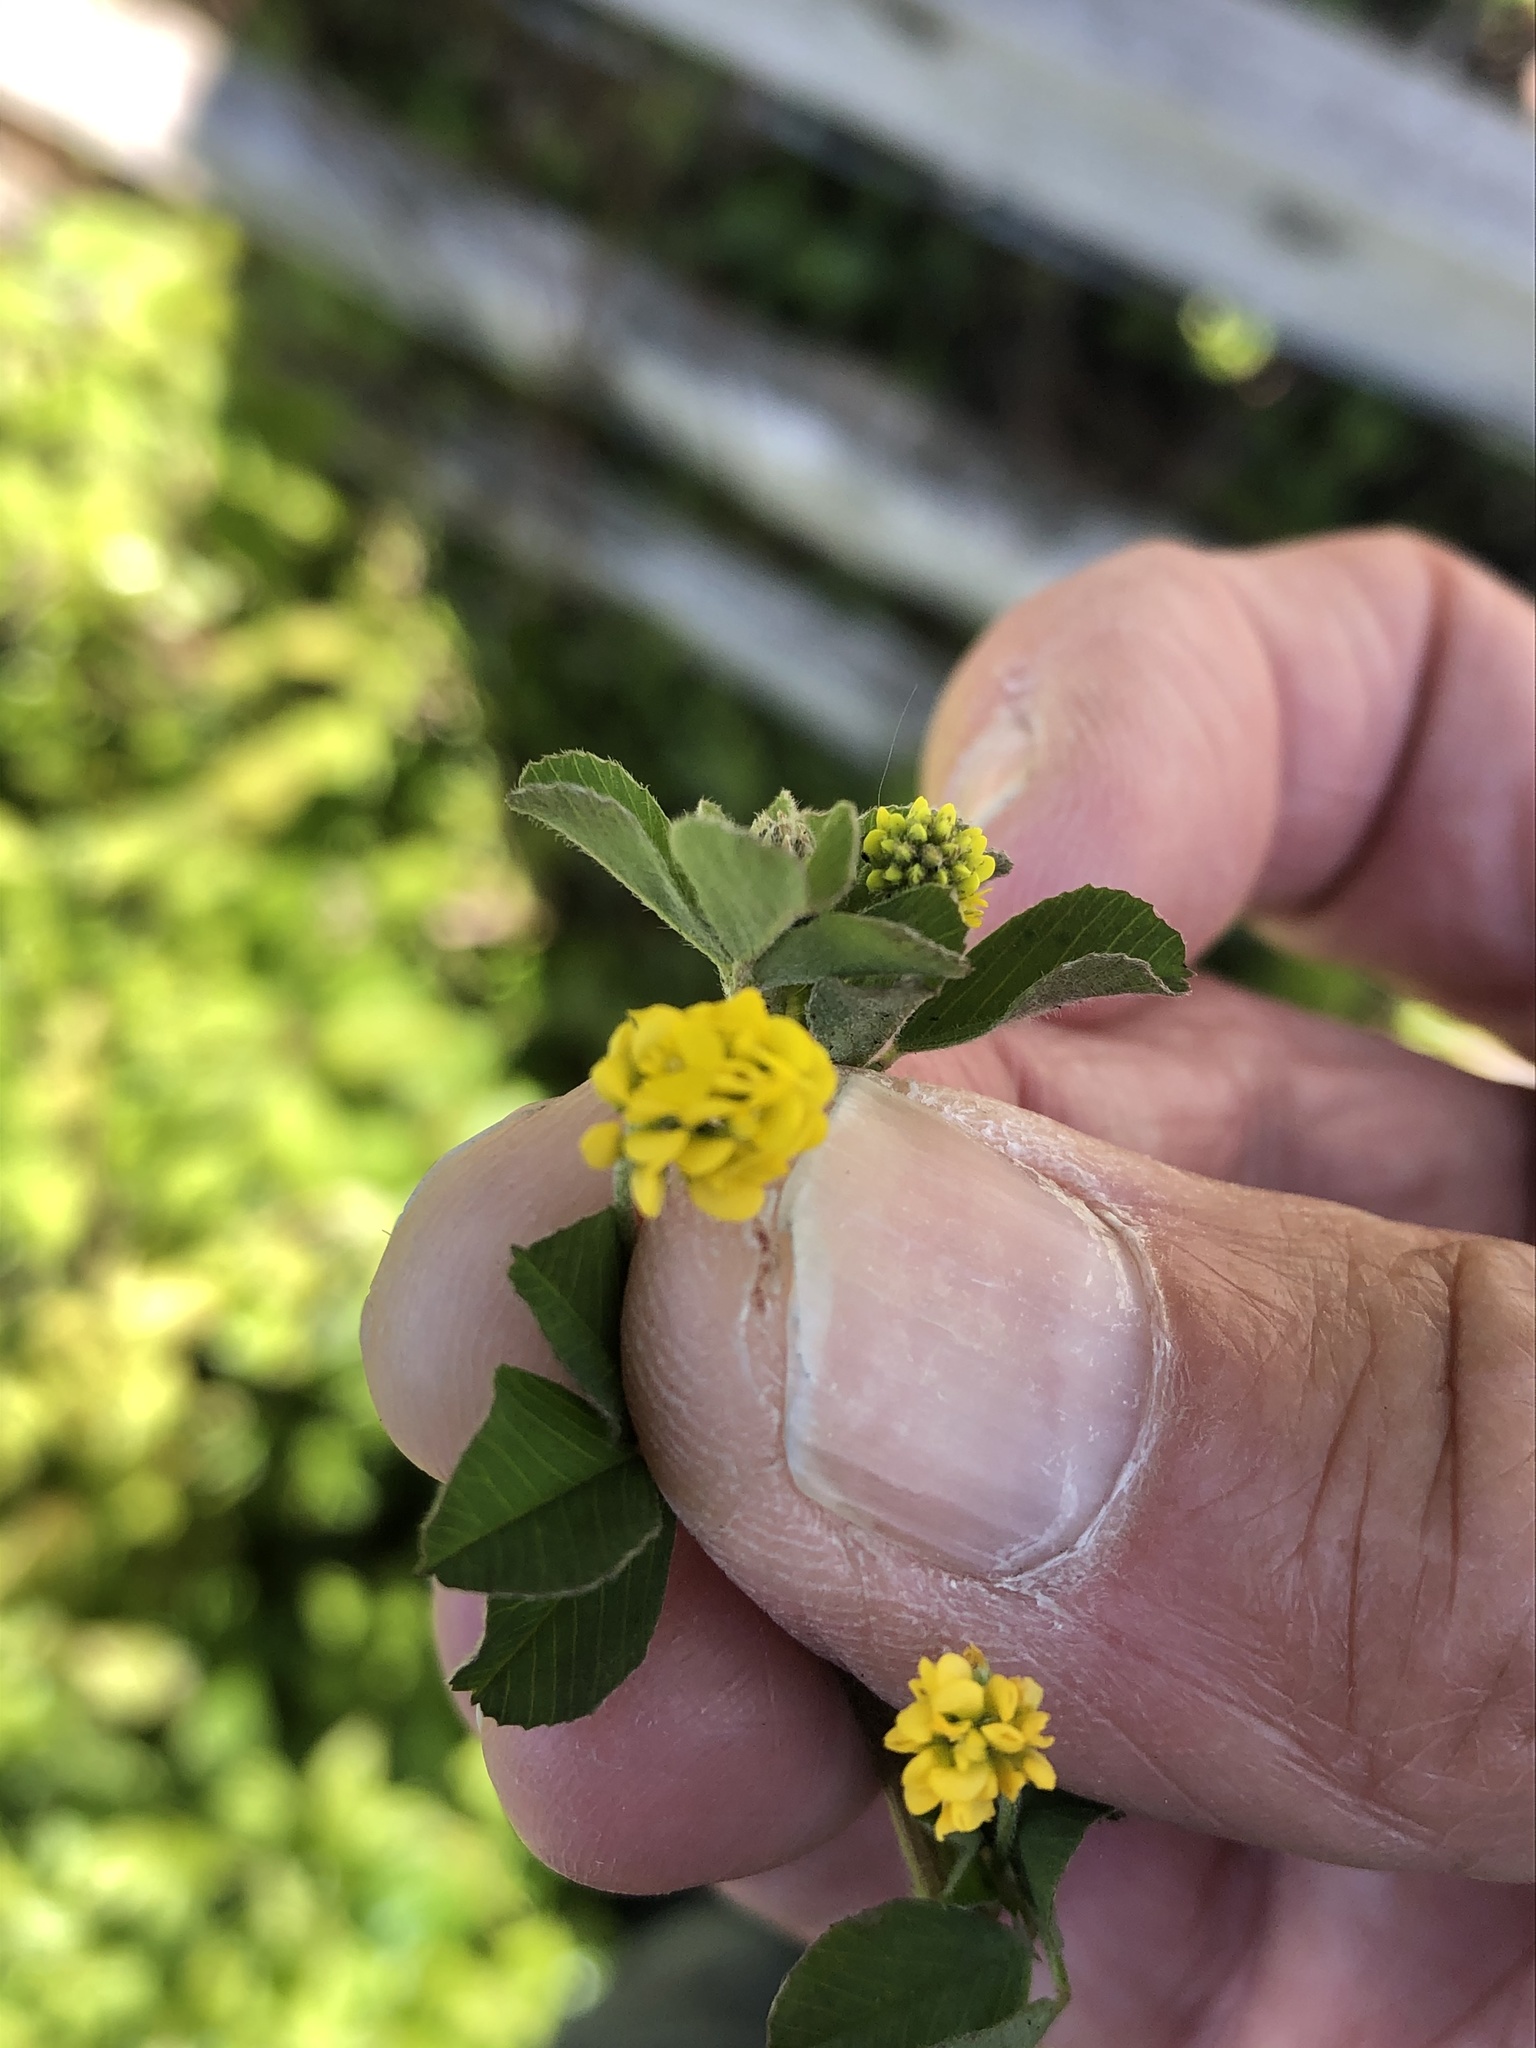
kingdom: Plantae
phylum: Tracheophyta
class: Magnoliopsida
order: Fabales
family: Fabaceae
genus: Medicago
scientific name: Medicago lupulina
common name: Black medick
